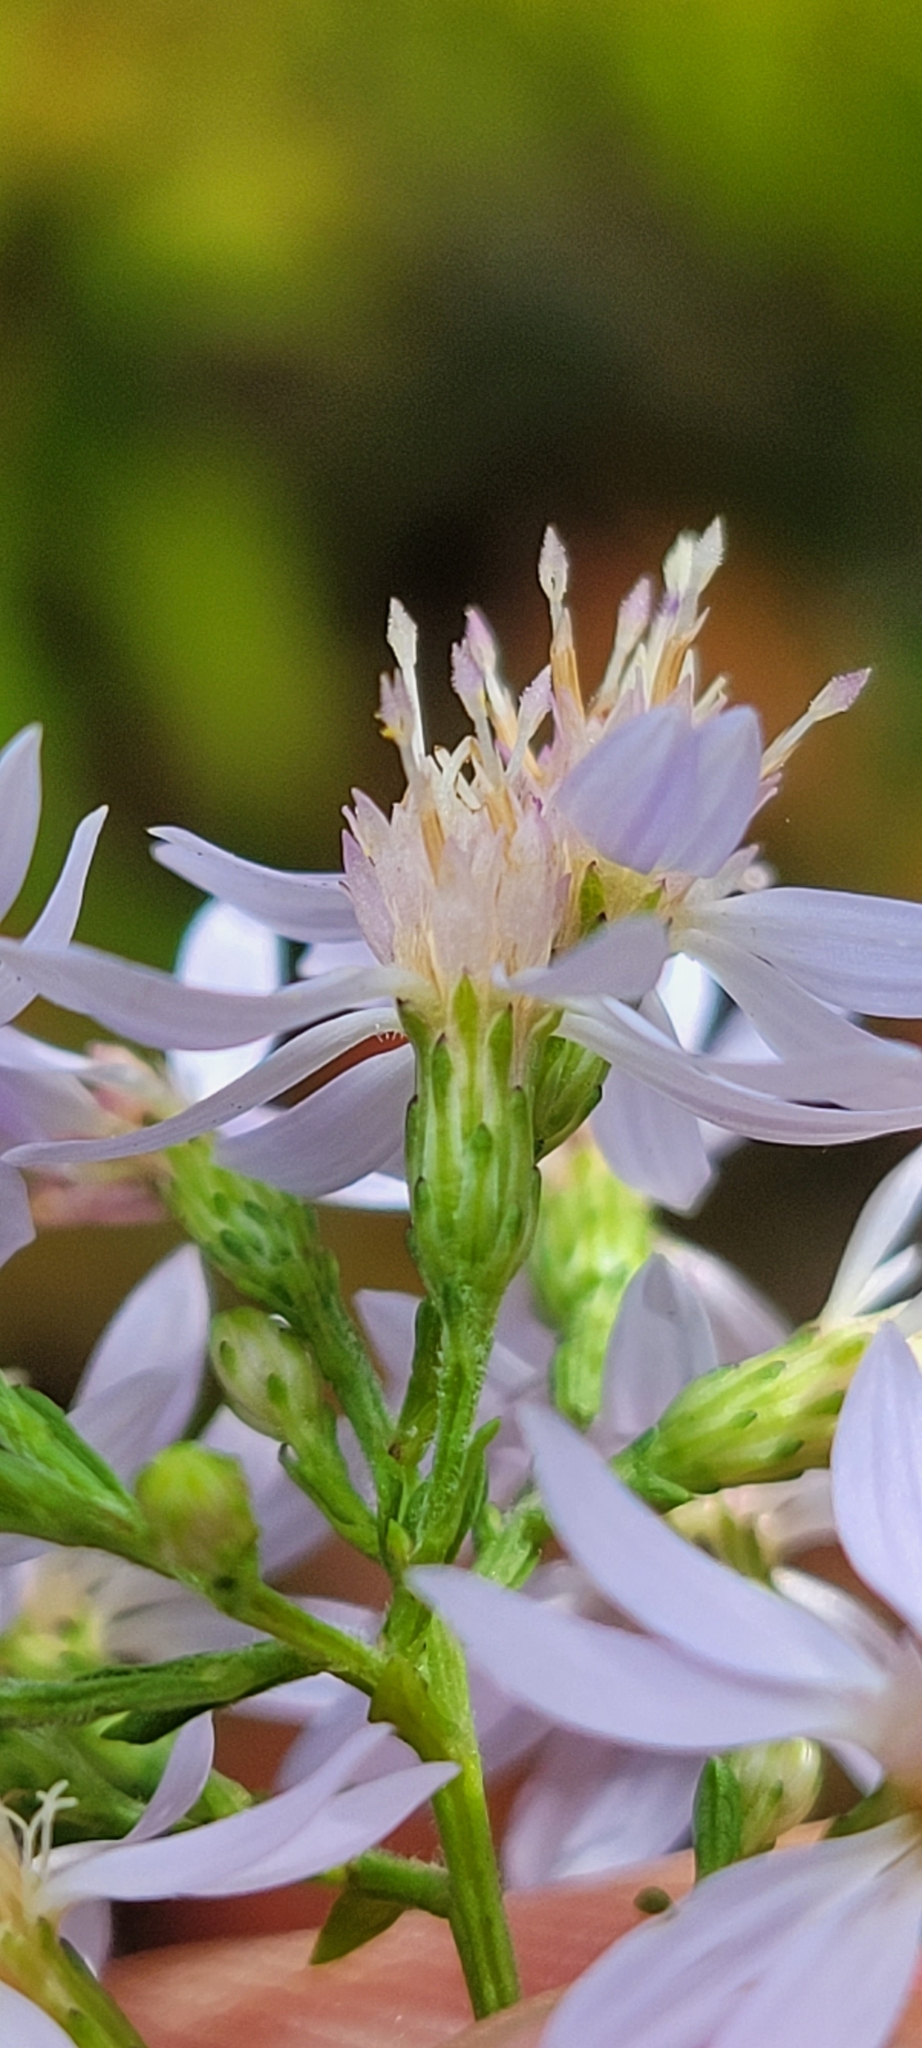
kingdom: Plantae
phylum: Tracheophyta
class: Magnoliopsida
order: Asterales
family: Asteraceae
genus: Symphyotrichum
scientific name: Symphyotrichum cordifolium
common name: Beeweed
